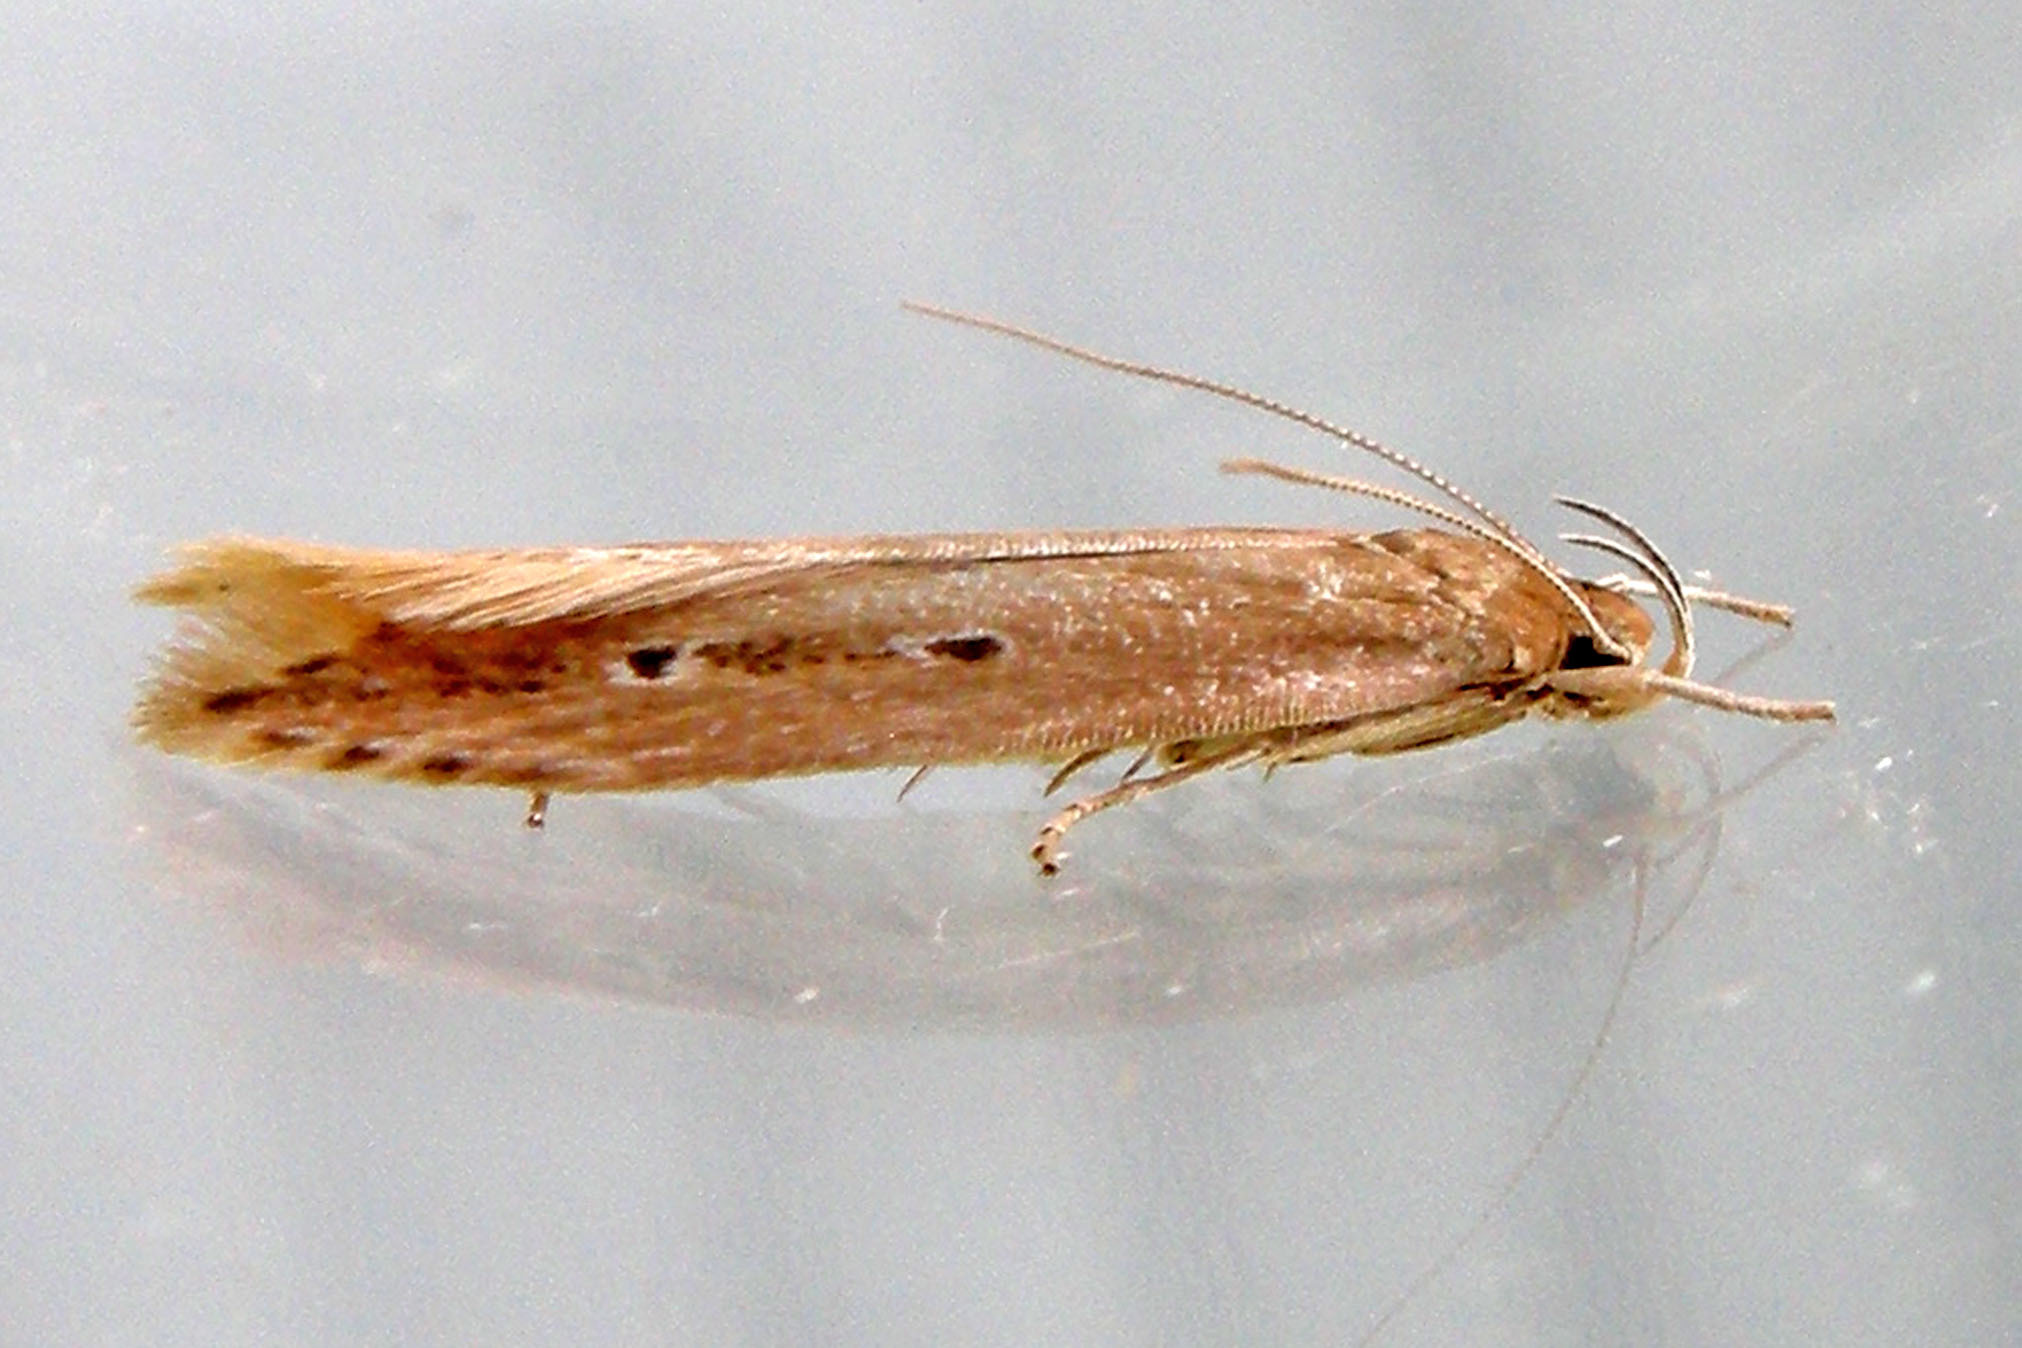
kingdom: Animalia
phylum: Arthropoda
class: Insecta
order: Lepidoptera
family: Cosmopterigidae
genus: Limnaecia
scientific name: Limnaecia phragmitella
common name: Bulrush cosmet
